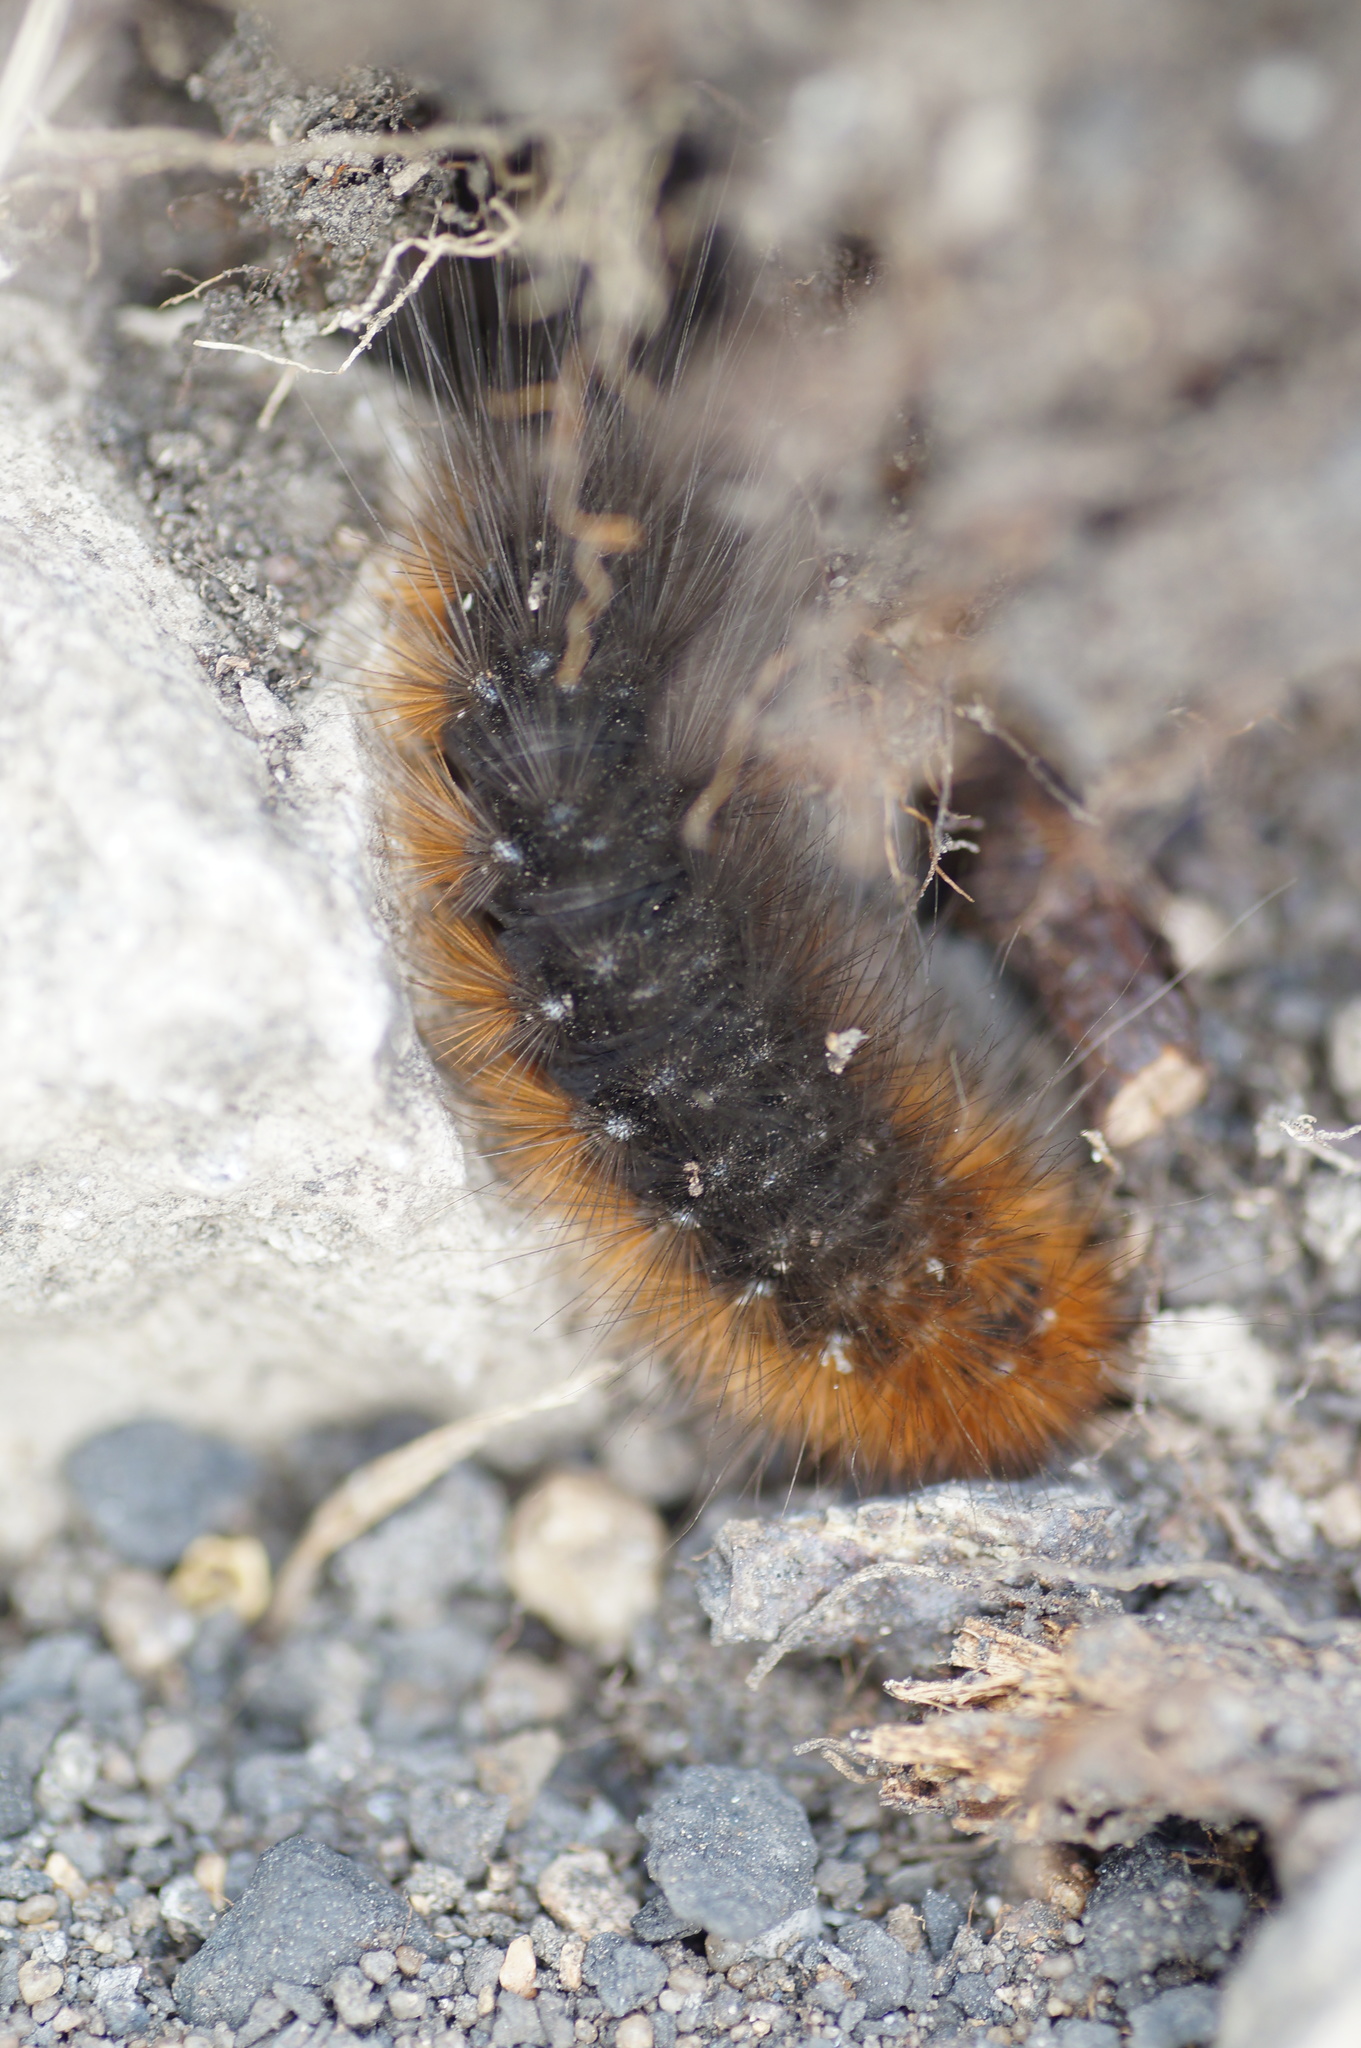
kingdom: Animalia
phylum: Arthropoda
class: Insecta
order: Lepidoptera
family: Erebidae
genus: Arctia
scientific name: Arctia caja
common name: Garden tiger
